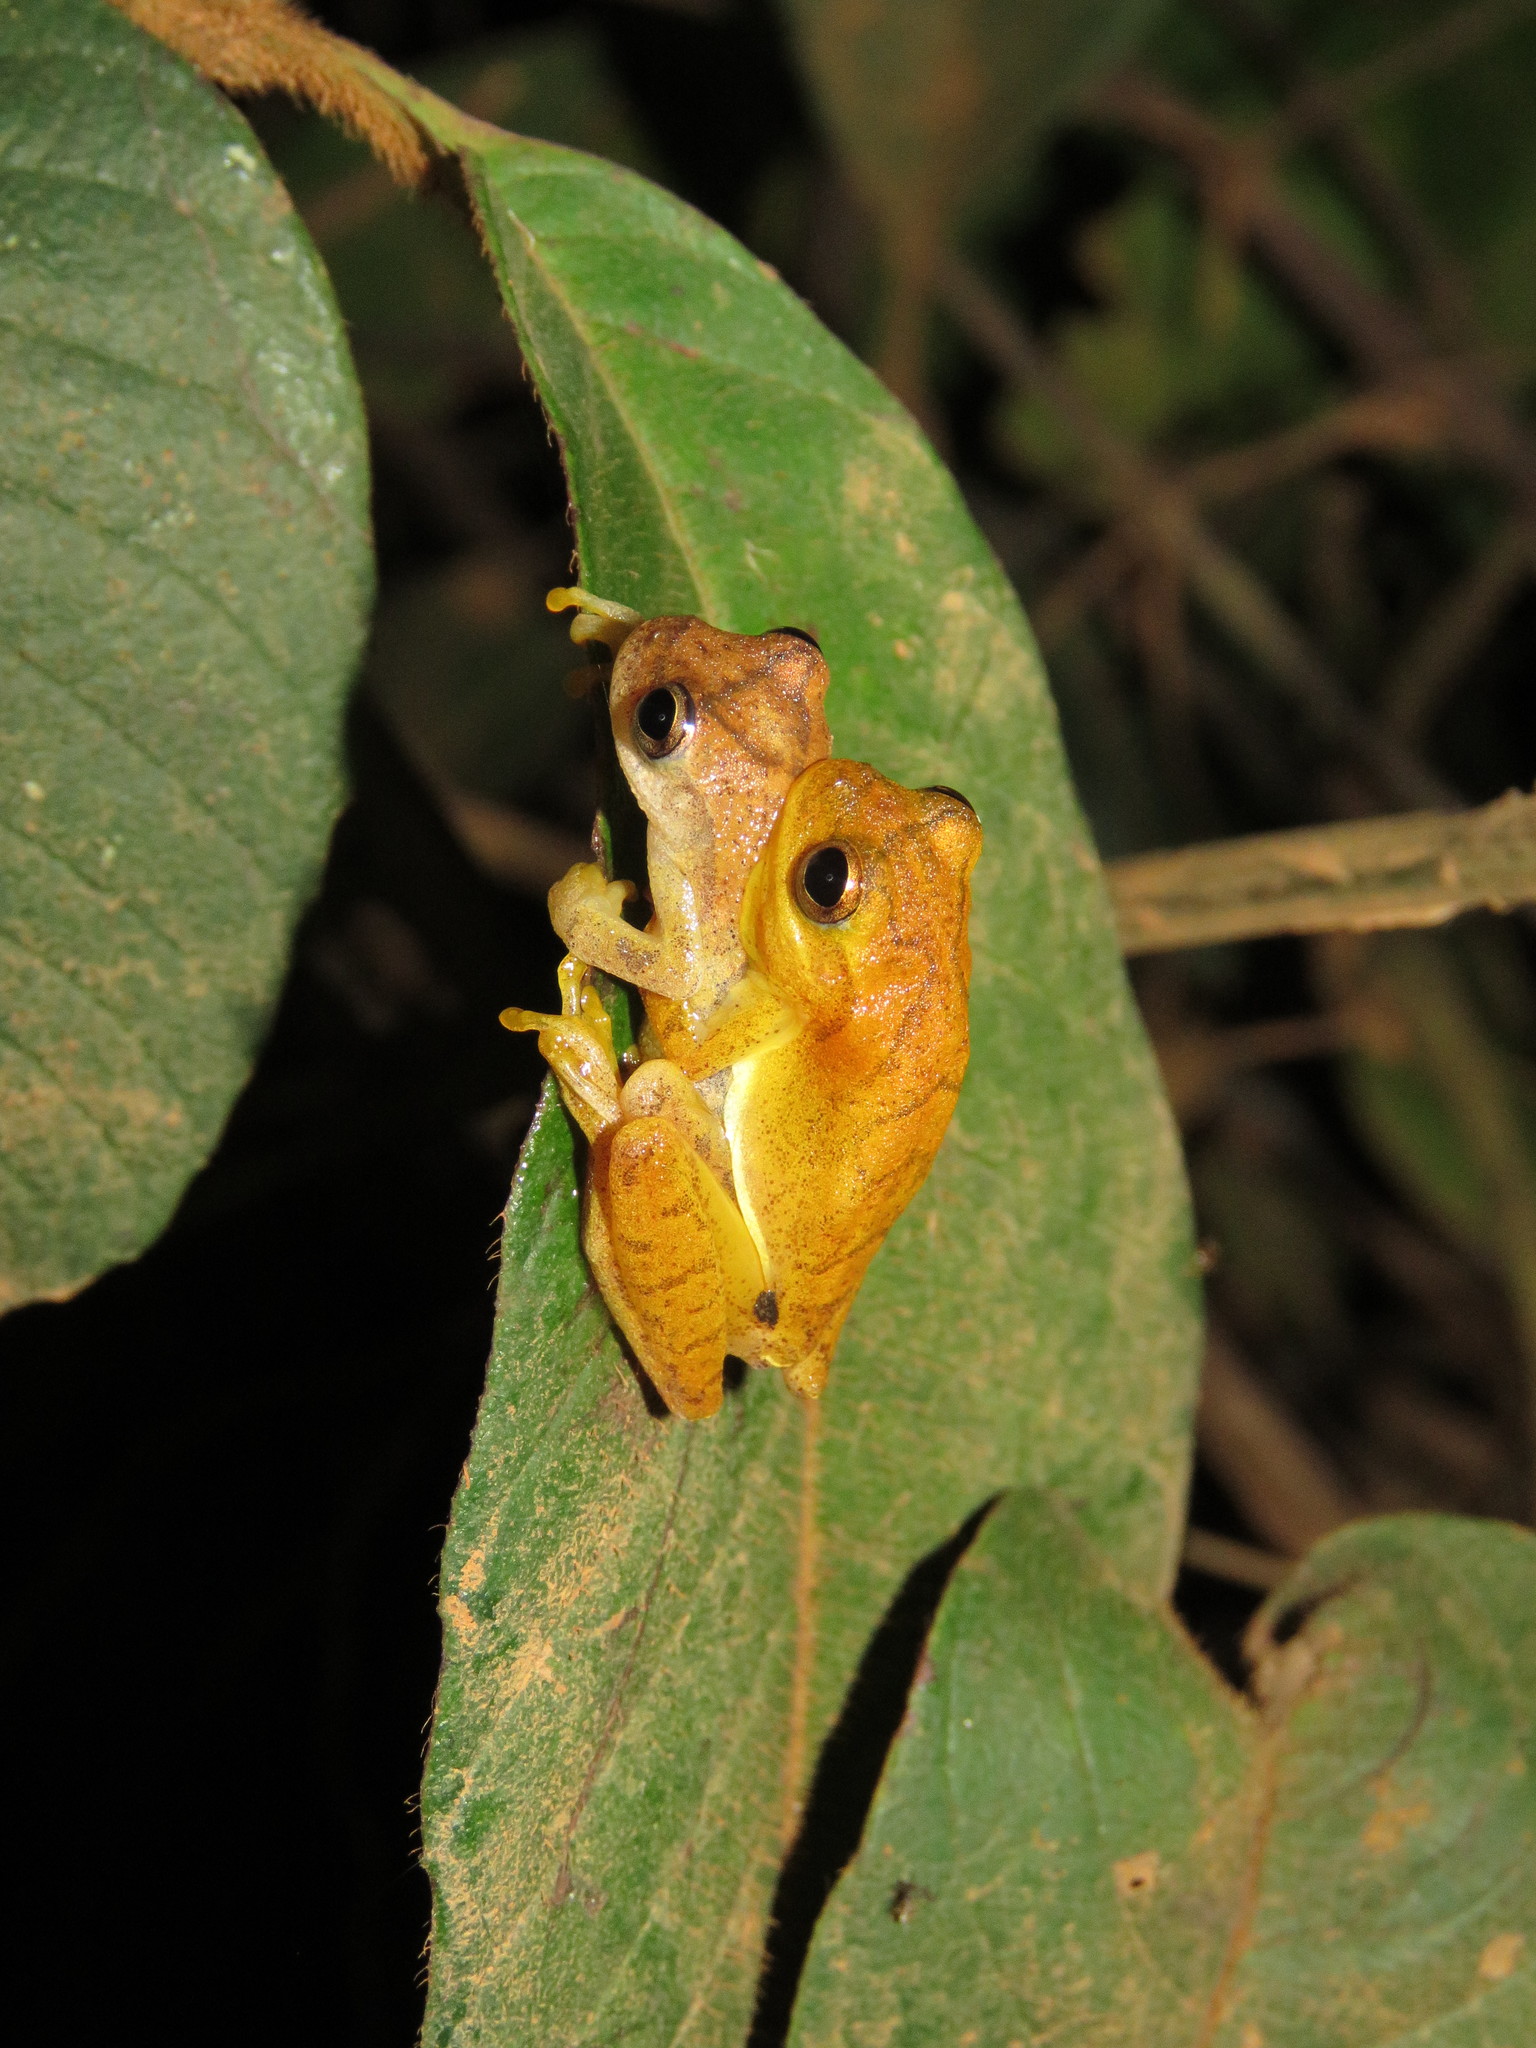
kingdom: Animalia
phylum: Chordata
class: Amphibia
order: Anura
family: Hylidae
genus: Dendropsophus
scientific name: Dendropsophus minutus
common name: Lesser treefrog
